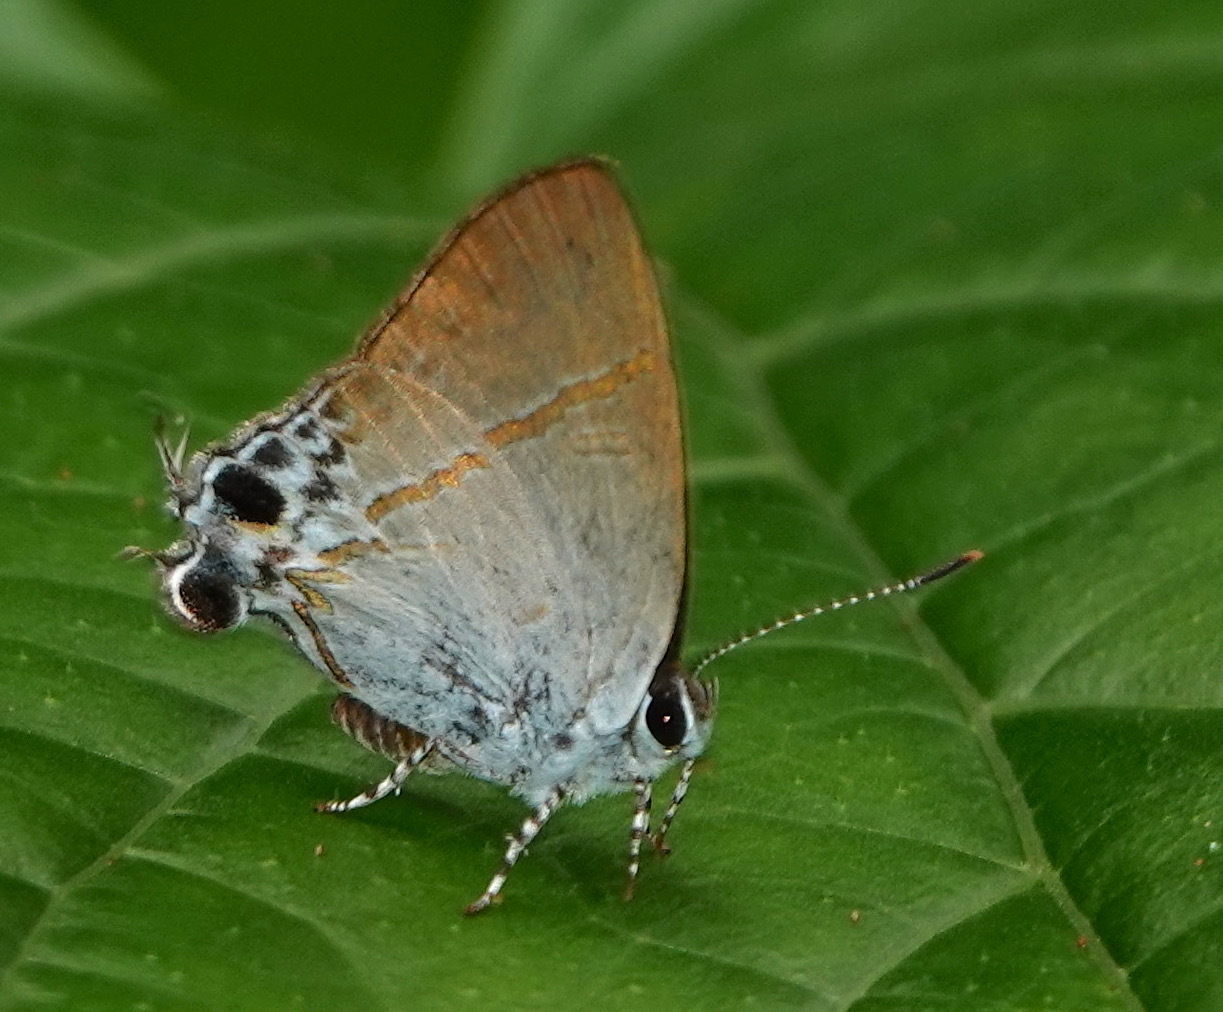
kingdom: Animalia
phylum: Arthropoda
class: Insecta
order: Lepidoptera
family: Lycaenidae
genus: Hypolycaena
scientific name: Hypolycaena merguia
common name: Purple tit
